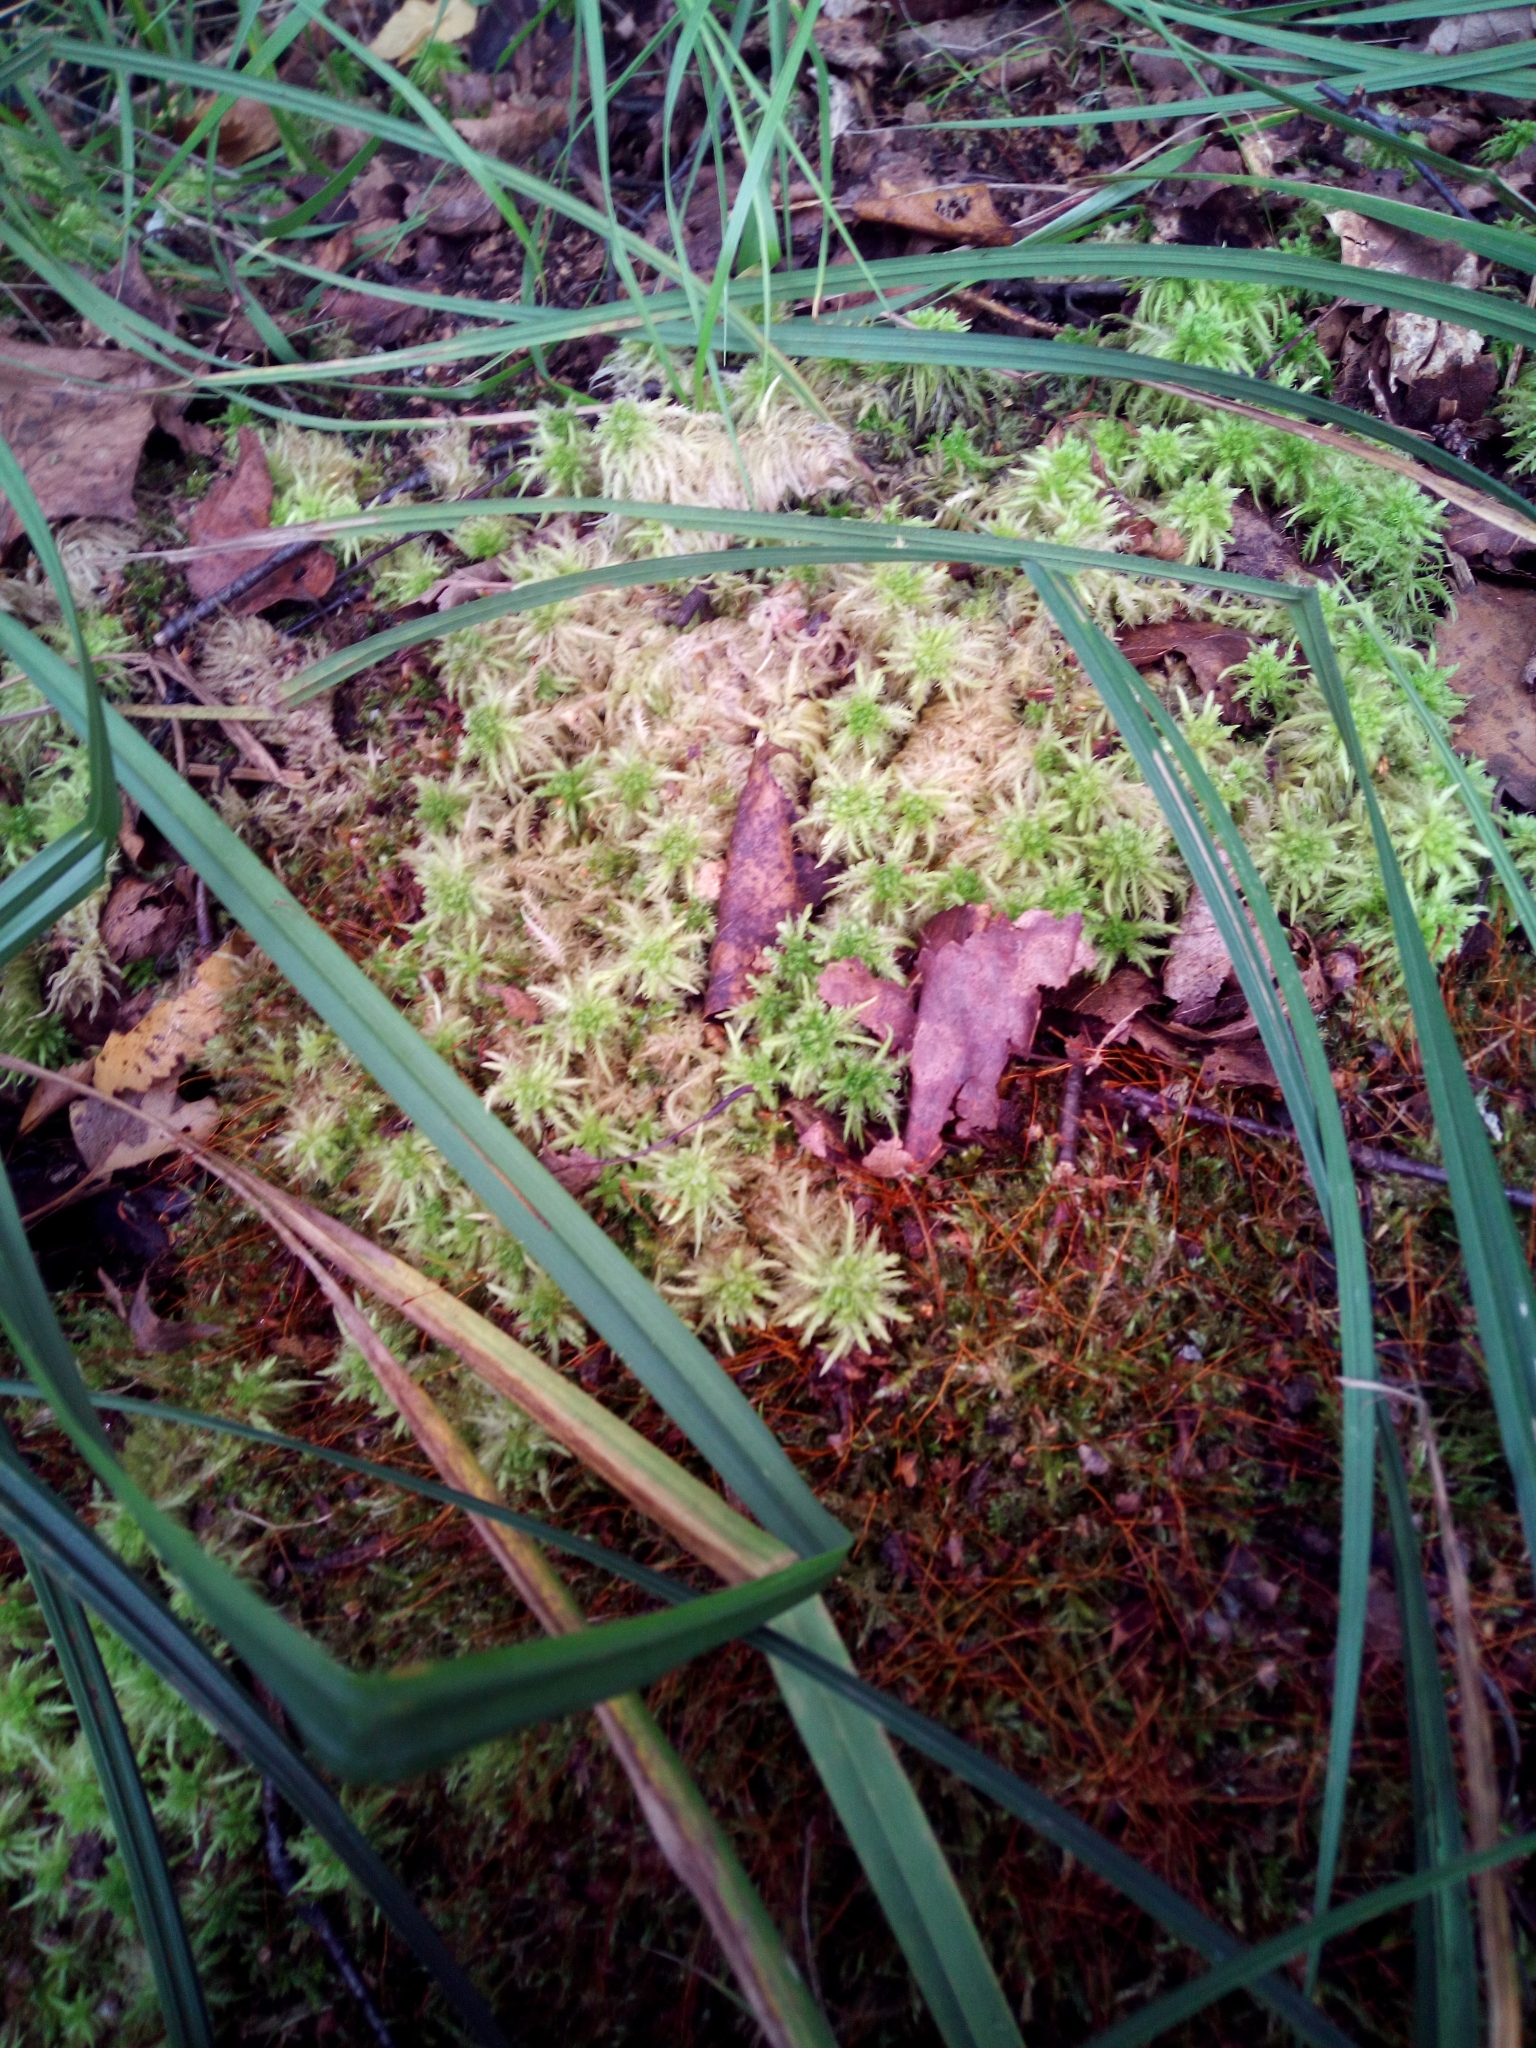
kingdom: Plantae
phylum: Bryophyta
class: Sphagnopsida
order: Sphagnales
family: Sphagnaceae
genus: Sphagnum
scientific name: Sphagnum squarrosum
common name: Shaggy peat moss
